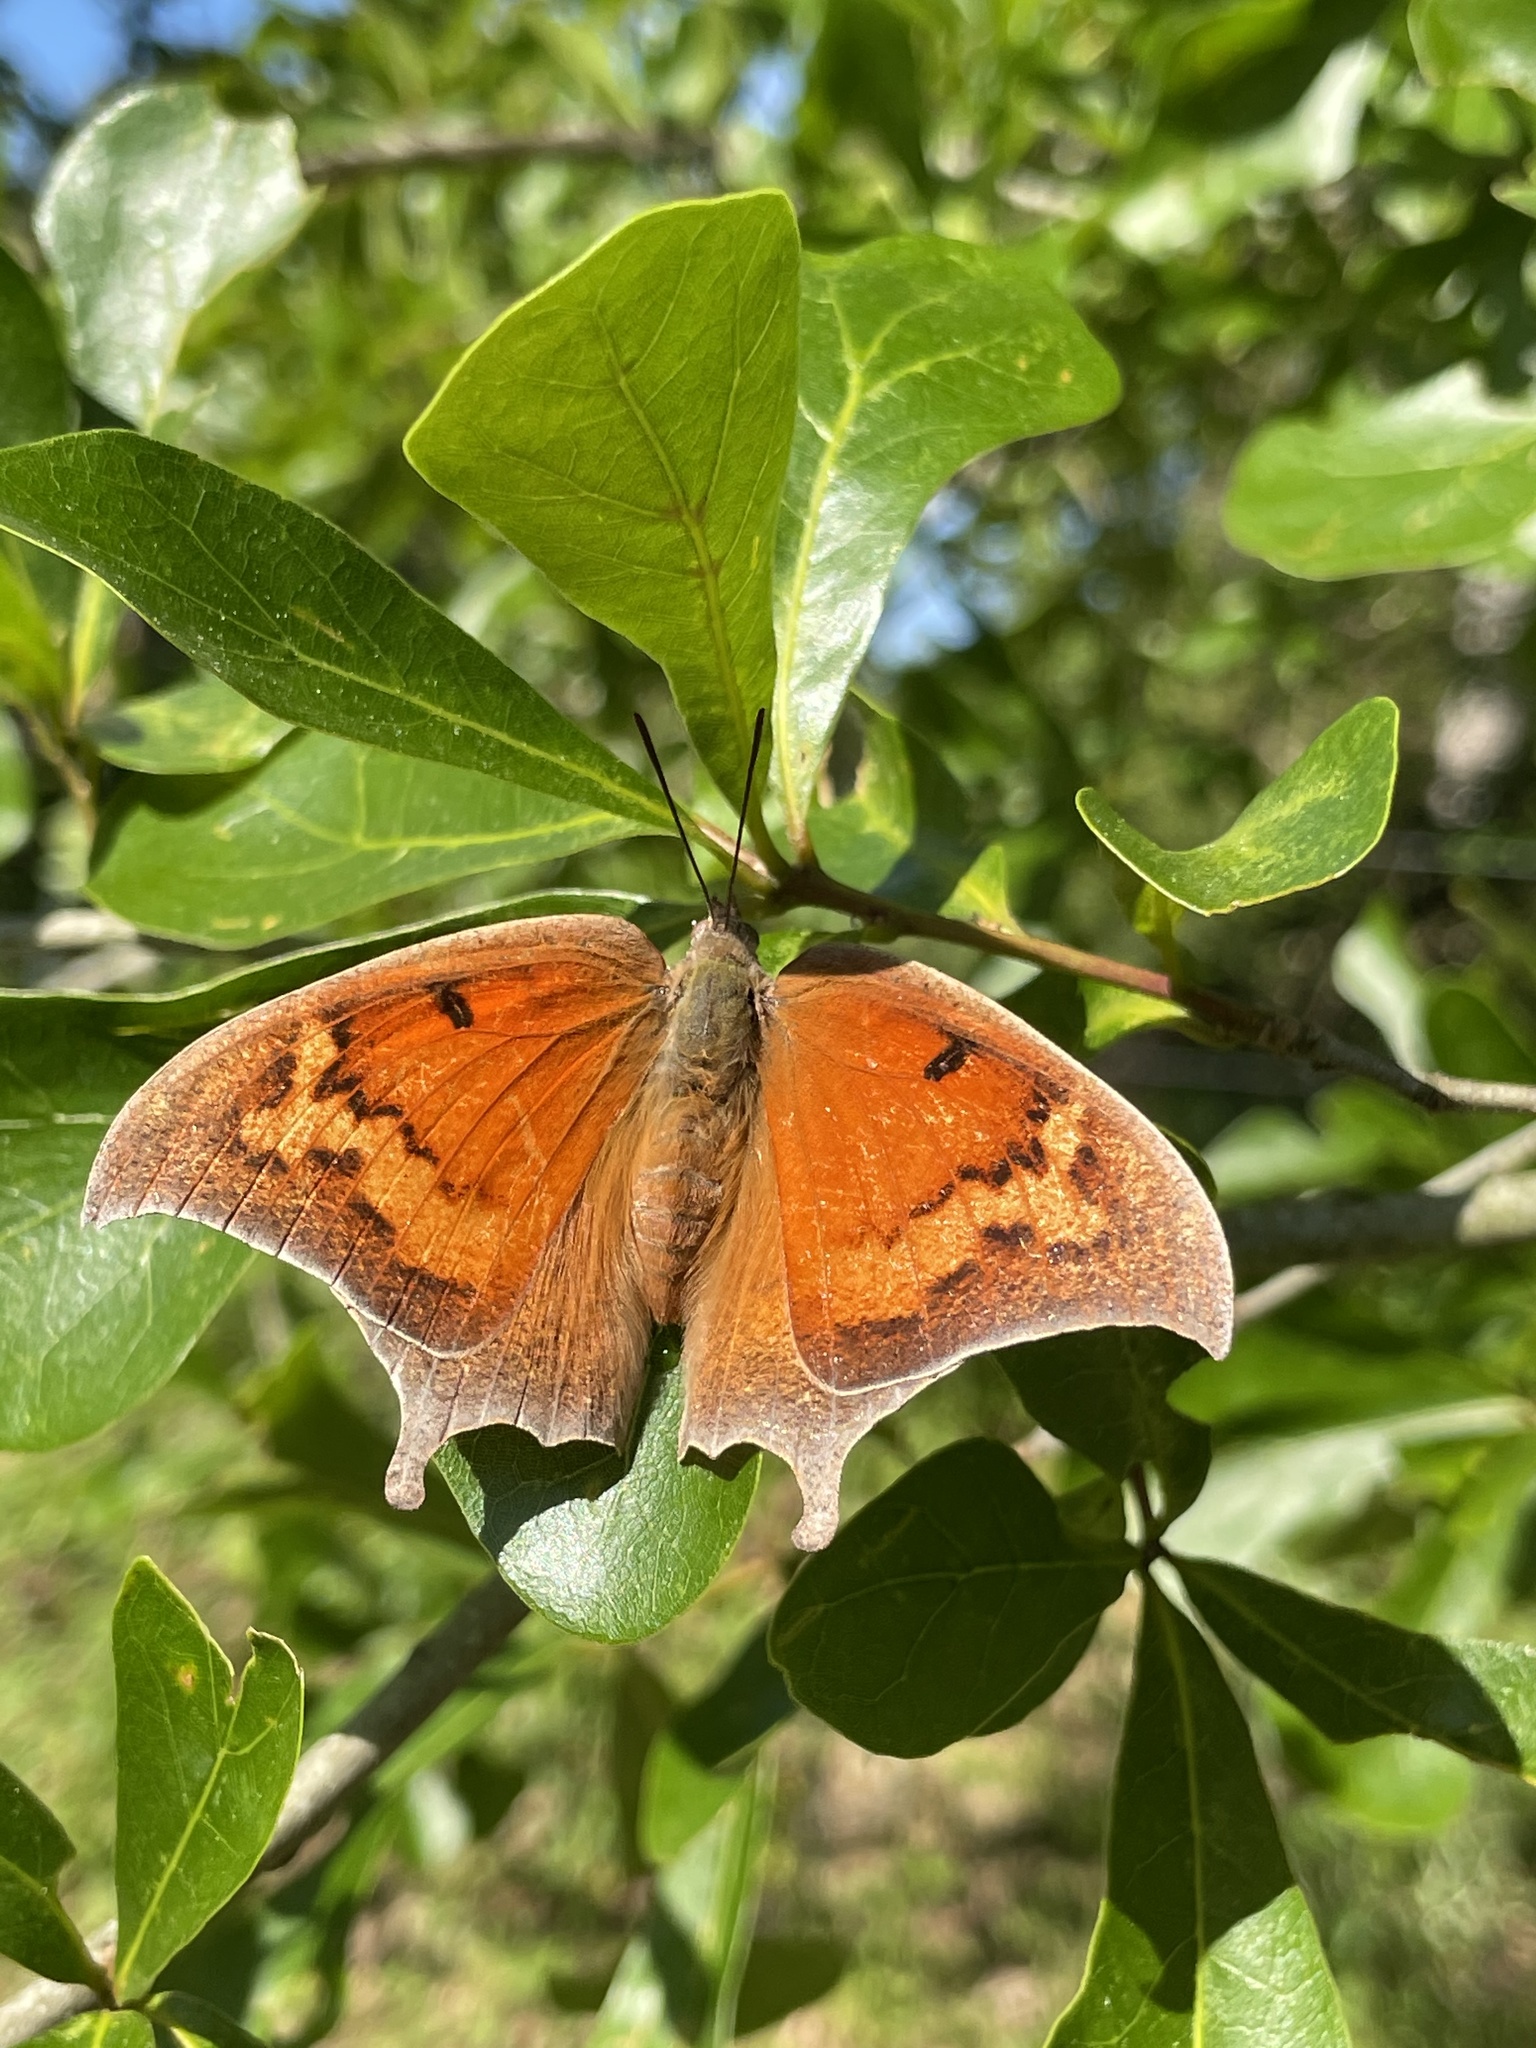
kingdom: Animalia
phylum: Arthropoda
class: Insecta
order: Lepidoptera
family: Nymphalidae
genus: Anaea
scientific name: Anaea andria
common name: Goatweed leafwing
